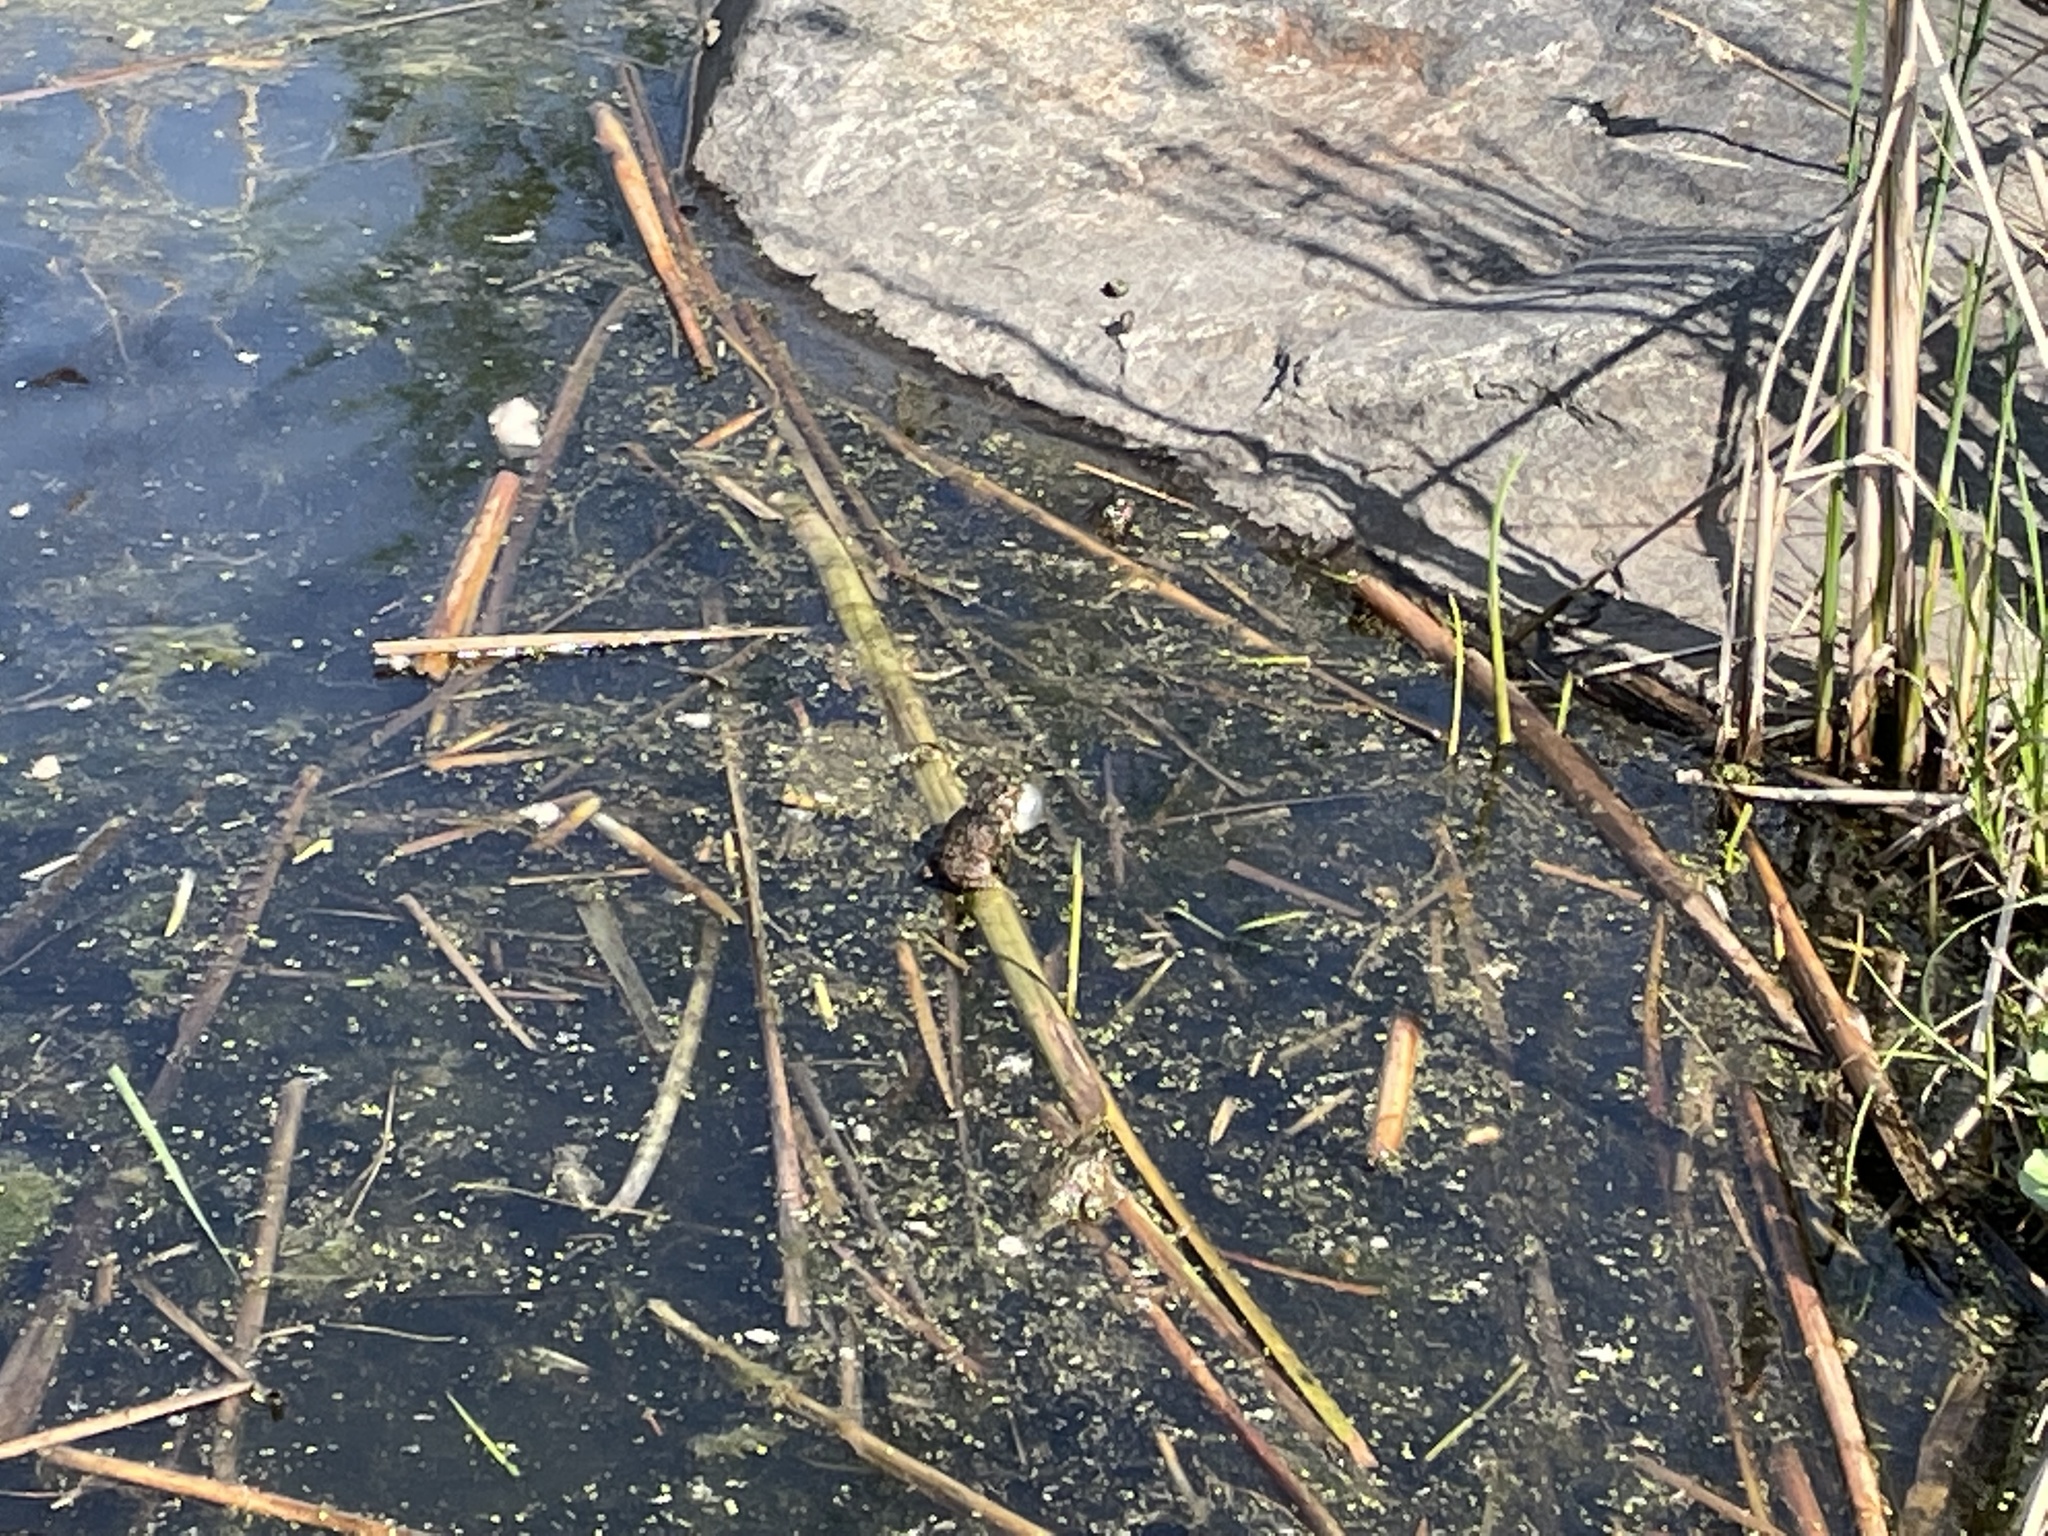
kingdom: Animalia
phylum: Chordata
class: Amphibia
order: Anura
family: Bufonidae
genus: Anaxyrus
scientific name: Anaxyrus americanus
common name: American toad
